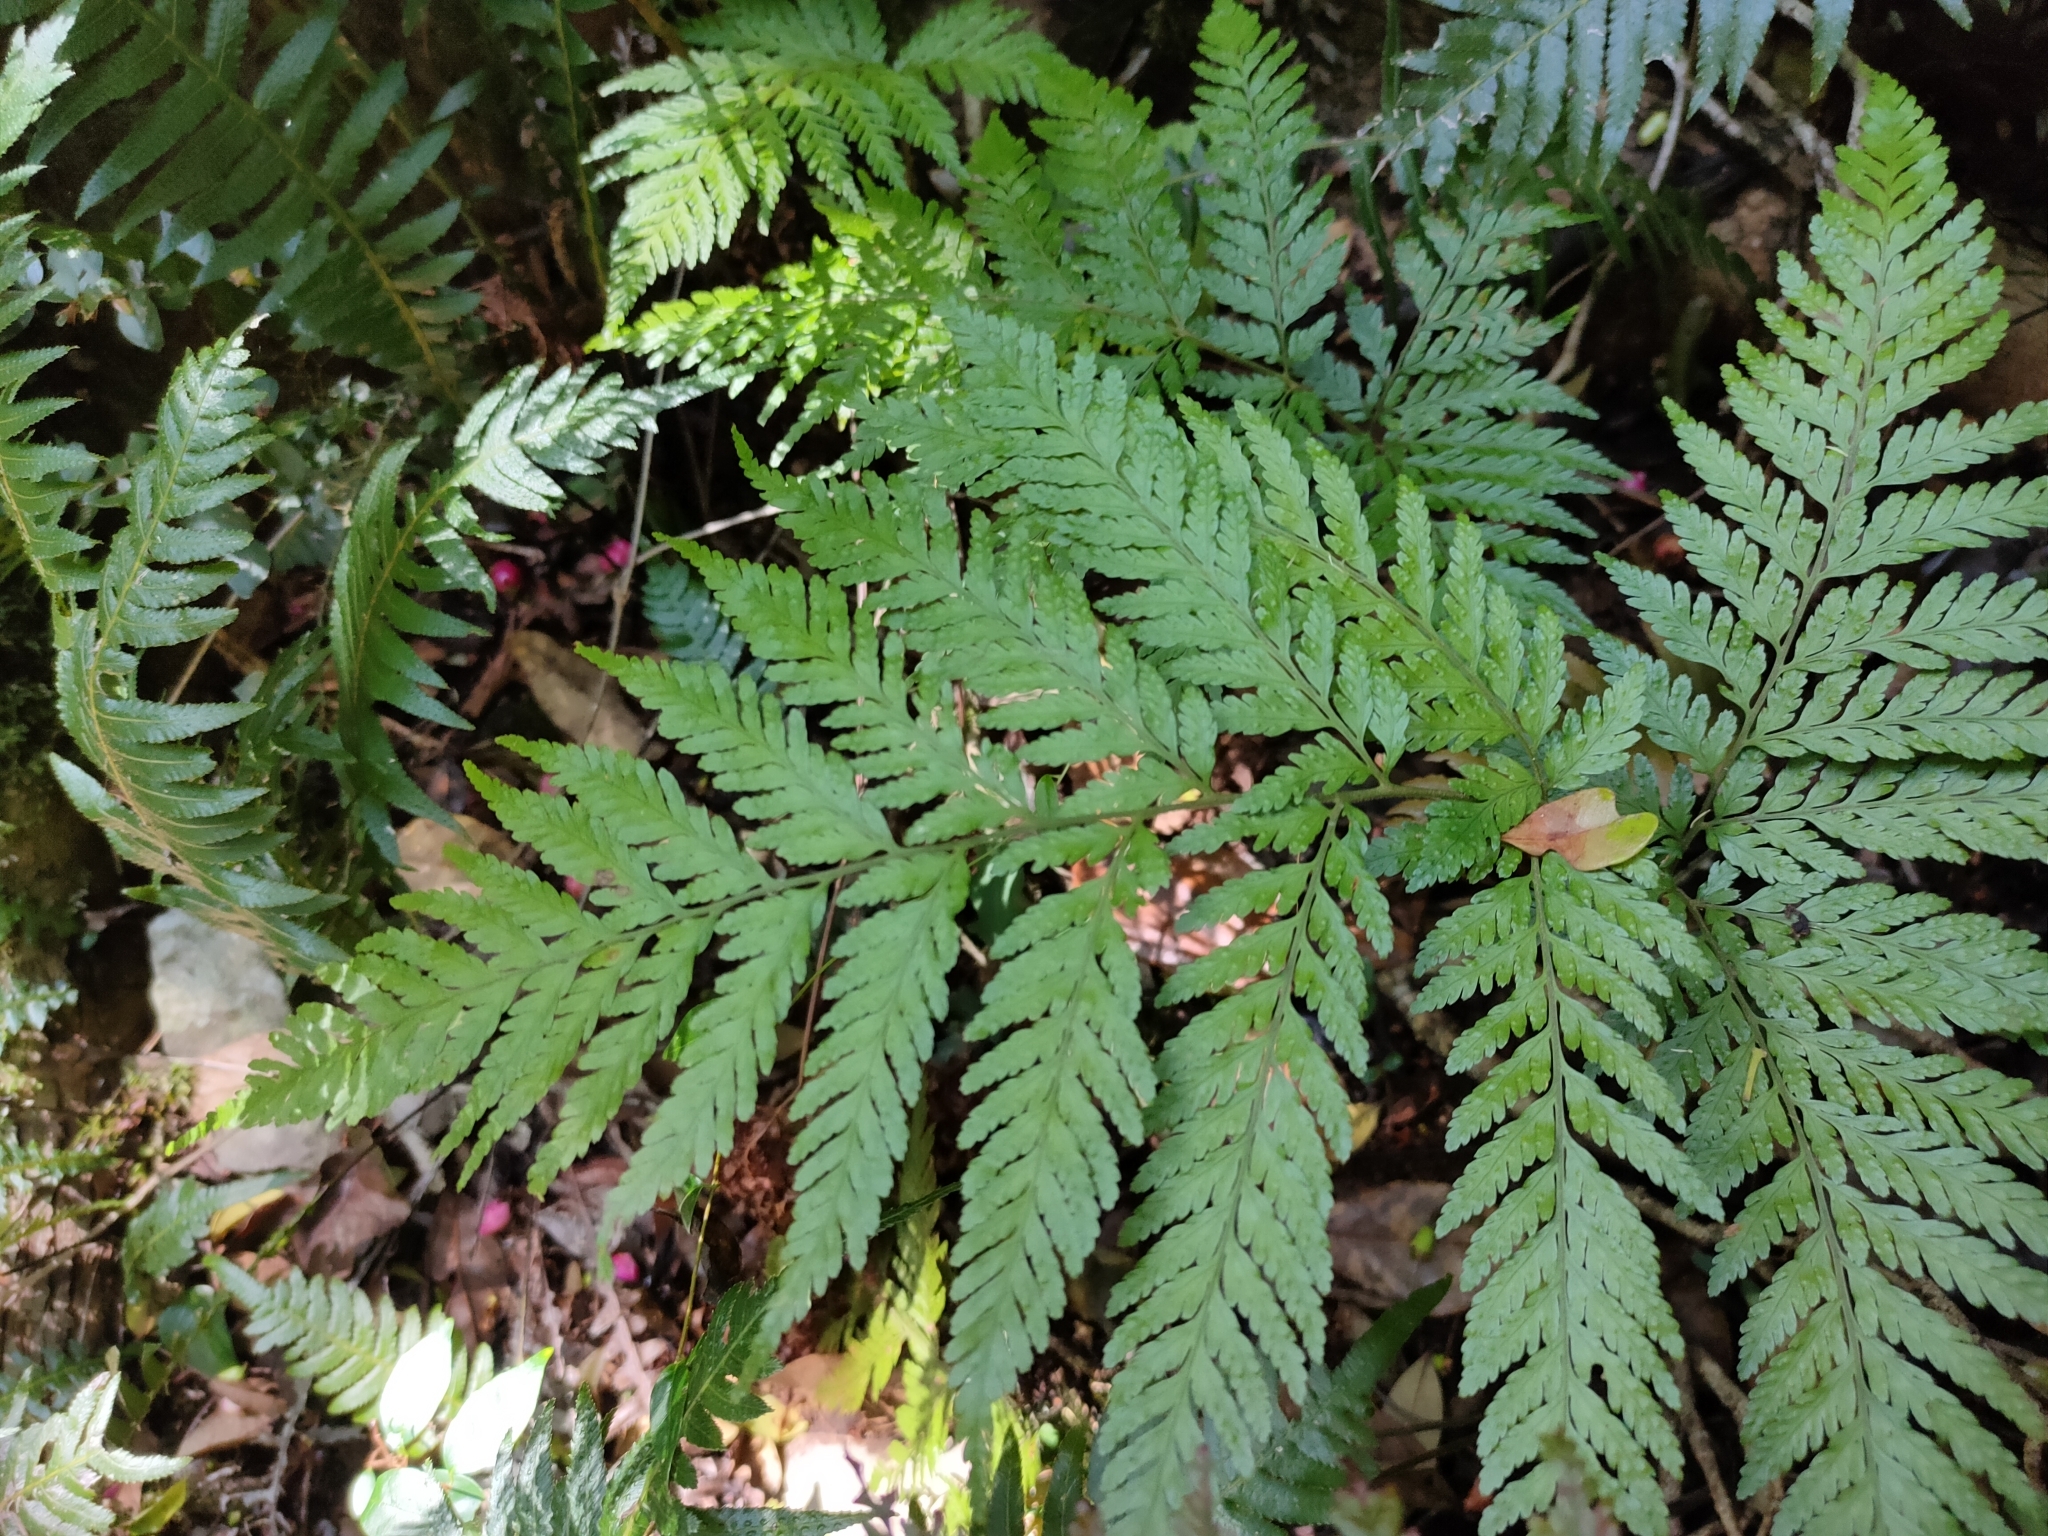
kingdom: Plantae
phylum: Tracheophyta
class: Polypodiopsida
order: Polypodiales
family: Dryopteridaceae
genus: Parapolystichum
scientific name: Parapolystichum microsorum
